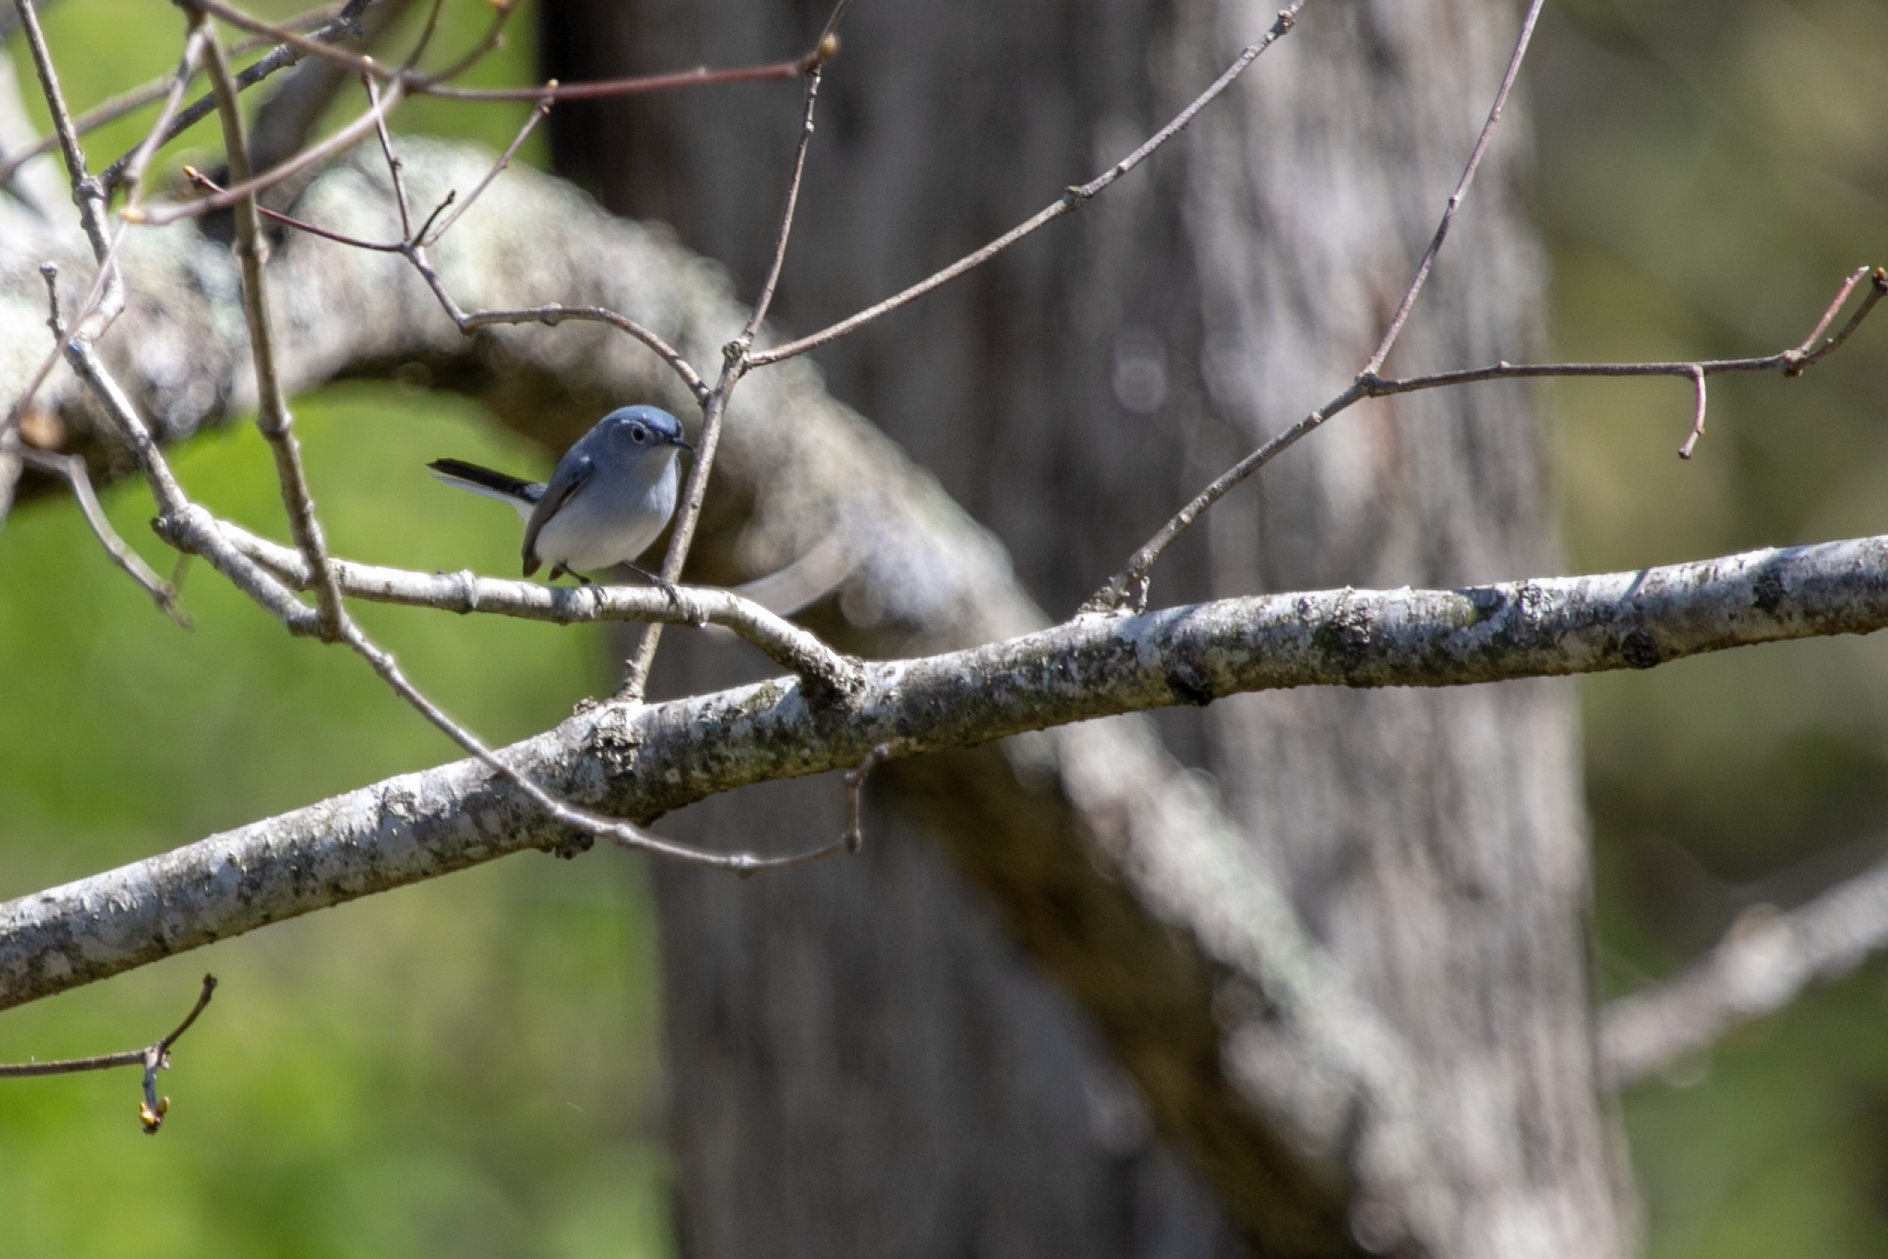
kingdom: Animalia
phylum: Chordata
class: Aves
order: Passeriformes
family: Polioptilidae
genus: Polioptila
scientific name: Polioptila caerulea
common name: Blue-gray gnatcatcher
